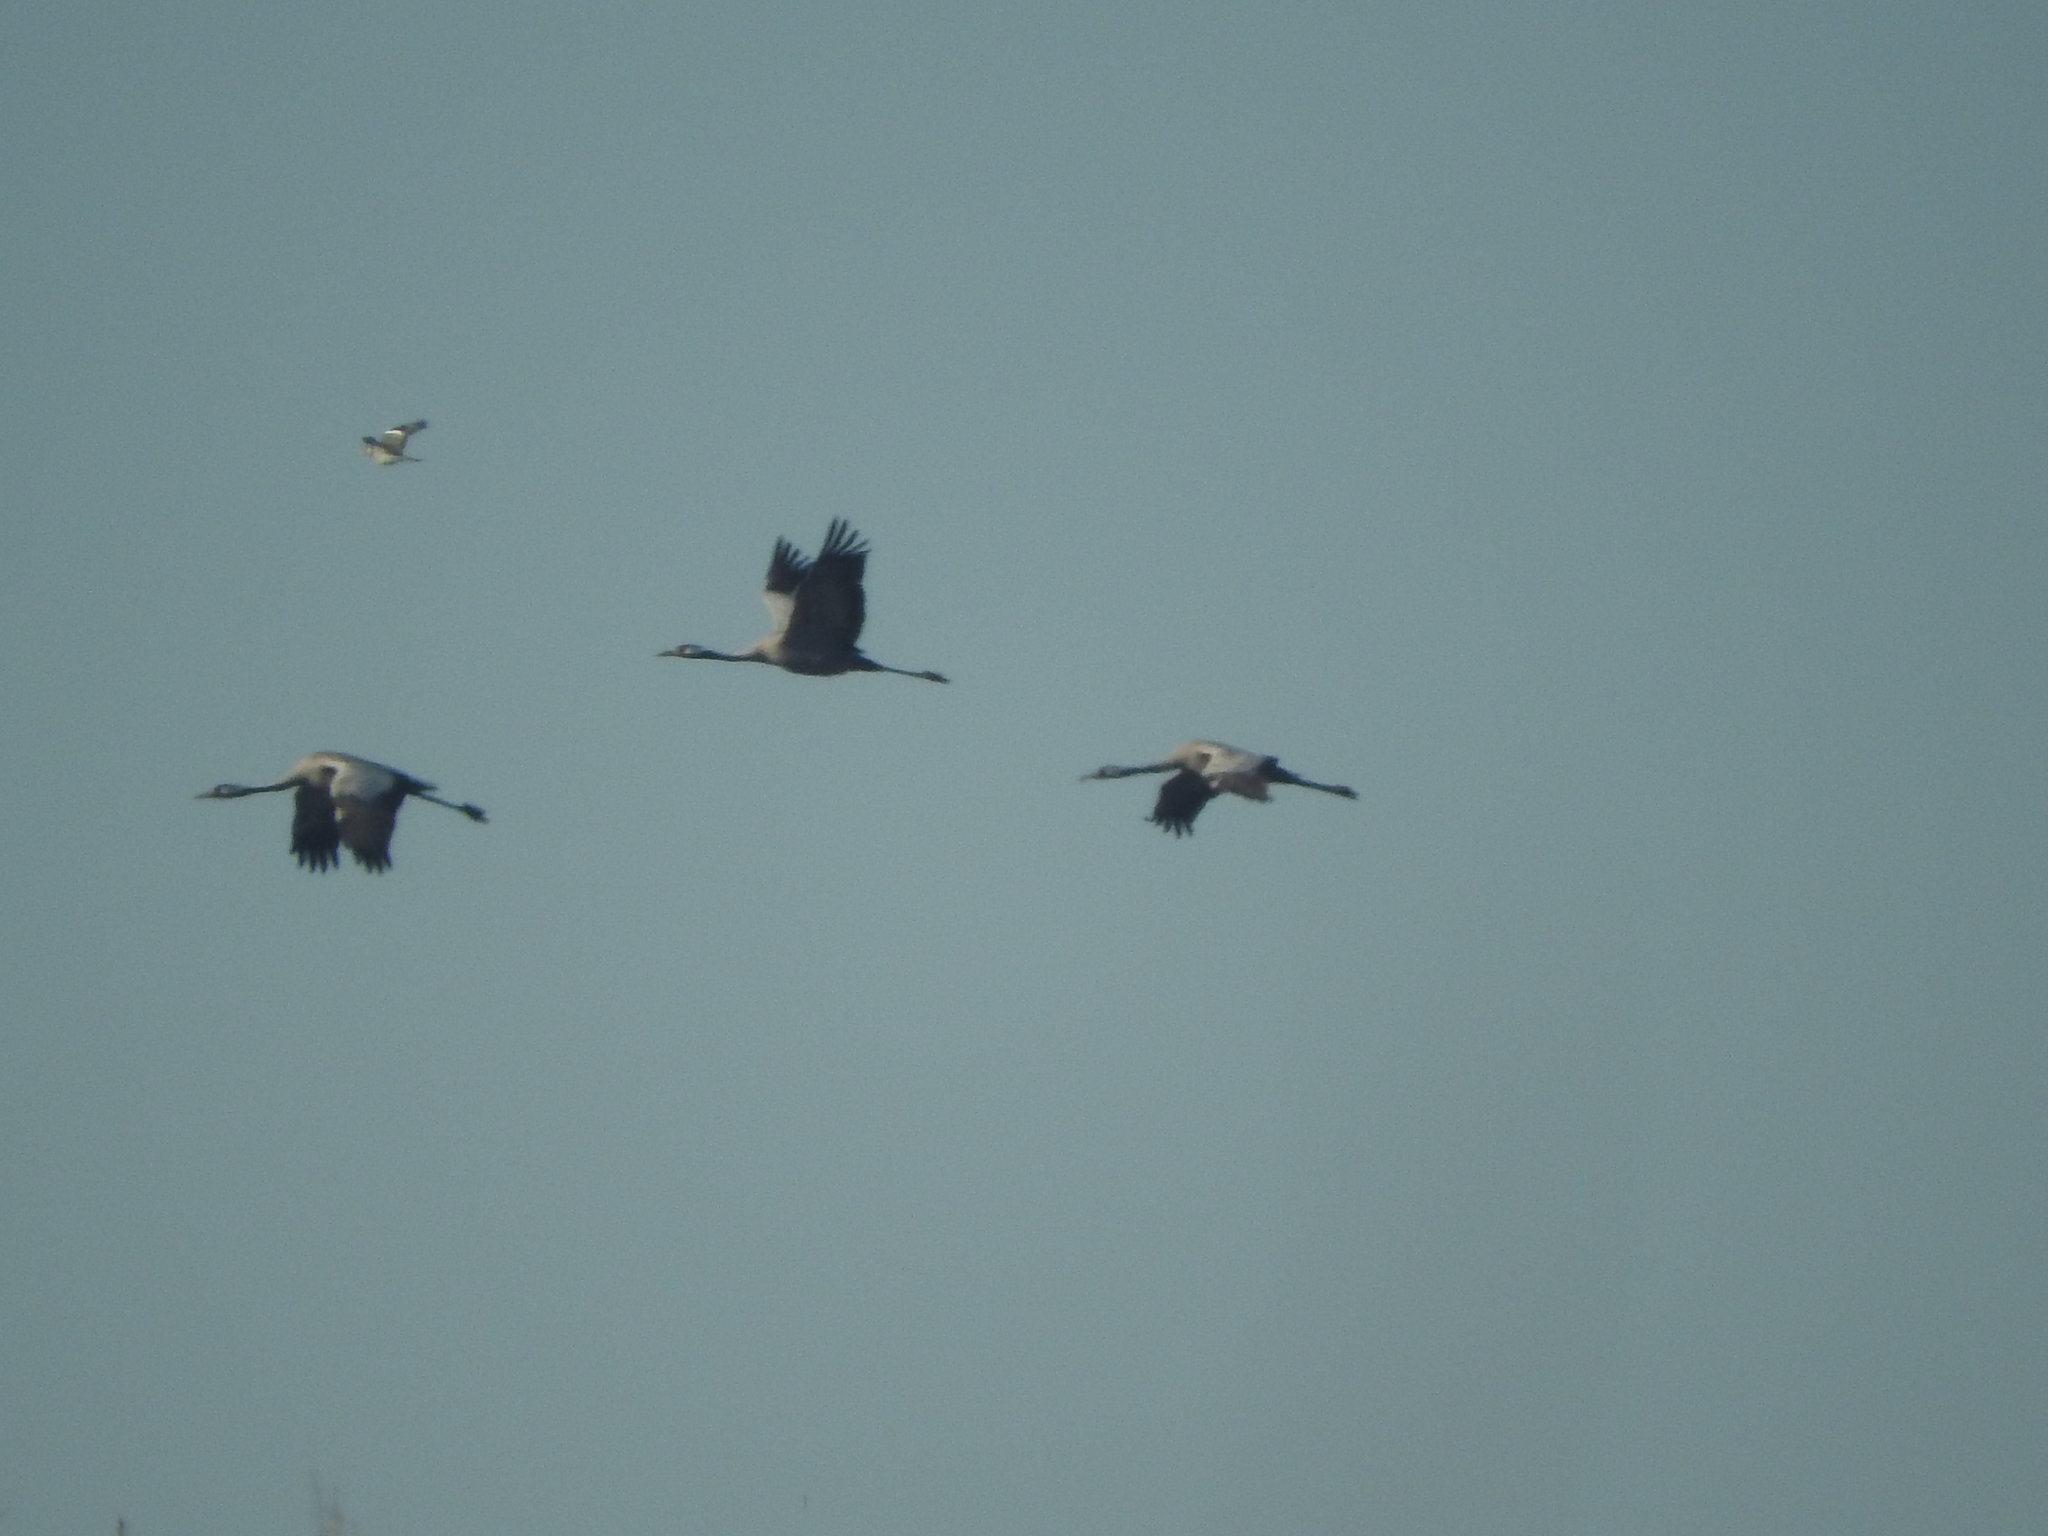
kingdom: Animalia
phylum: Chordata
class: Aves
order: Gruiformes
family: Gruidae
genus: Grus
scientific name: Grus grus
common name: Common crane
